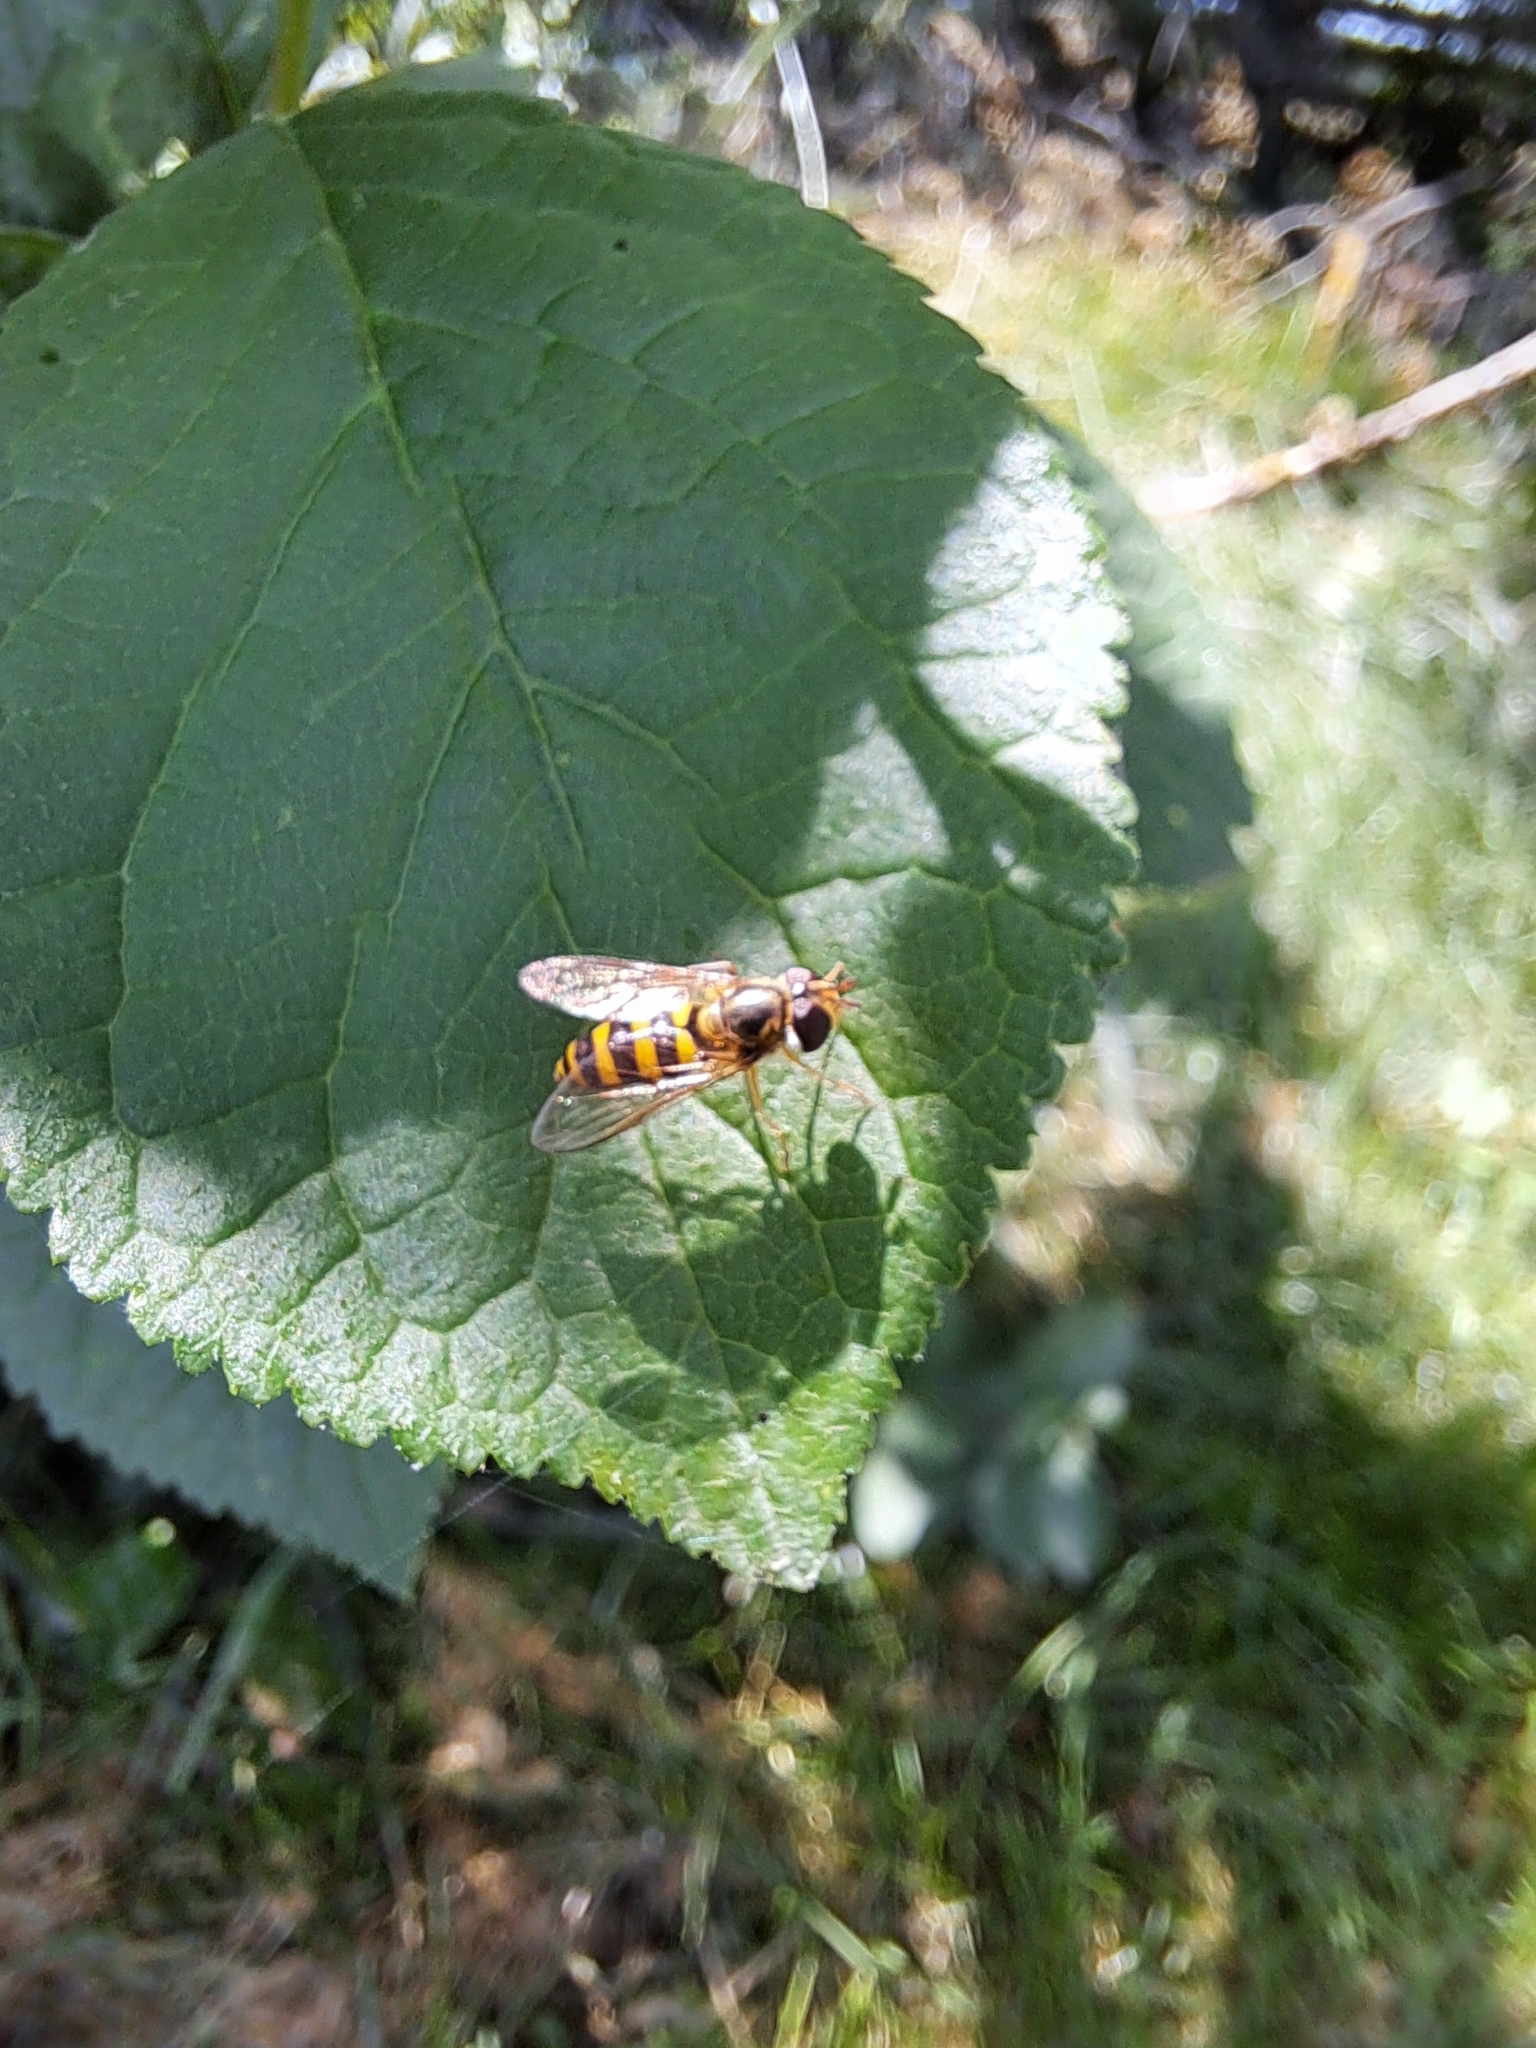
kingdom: Animalia
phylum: Arthropoda
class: Insecta
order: Diptera
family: Syrphidae
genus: Eupeodes
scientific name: Eupeodes
